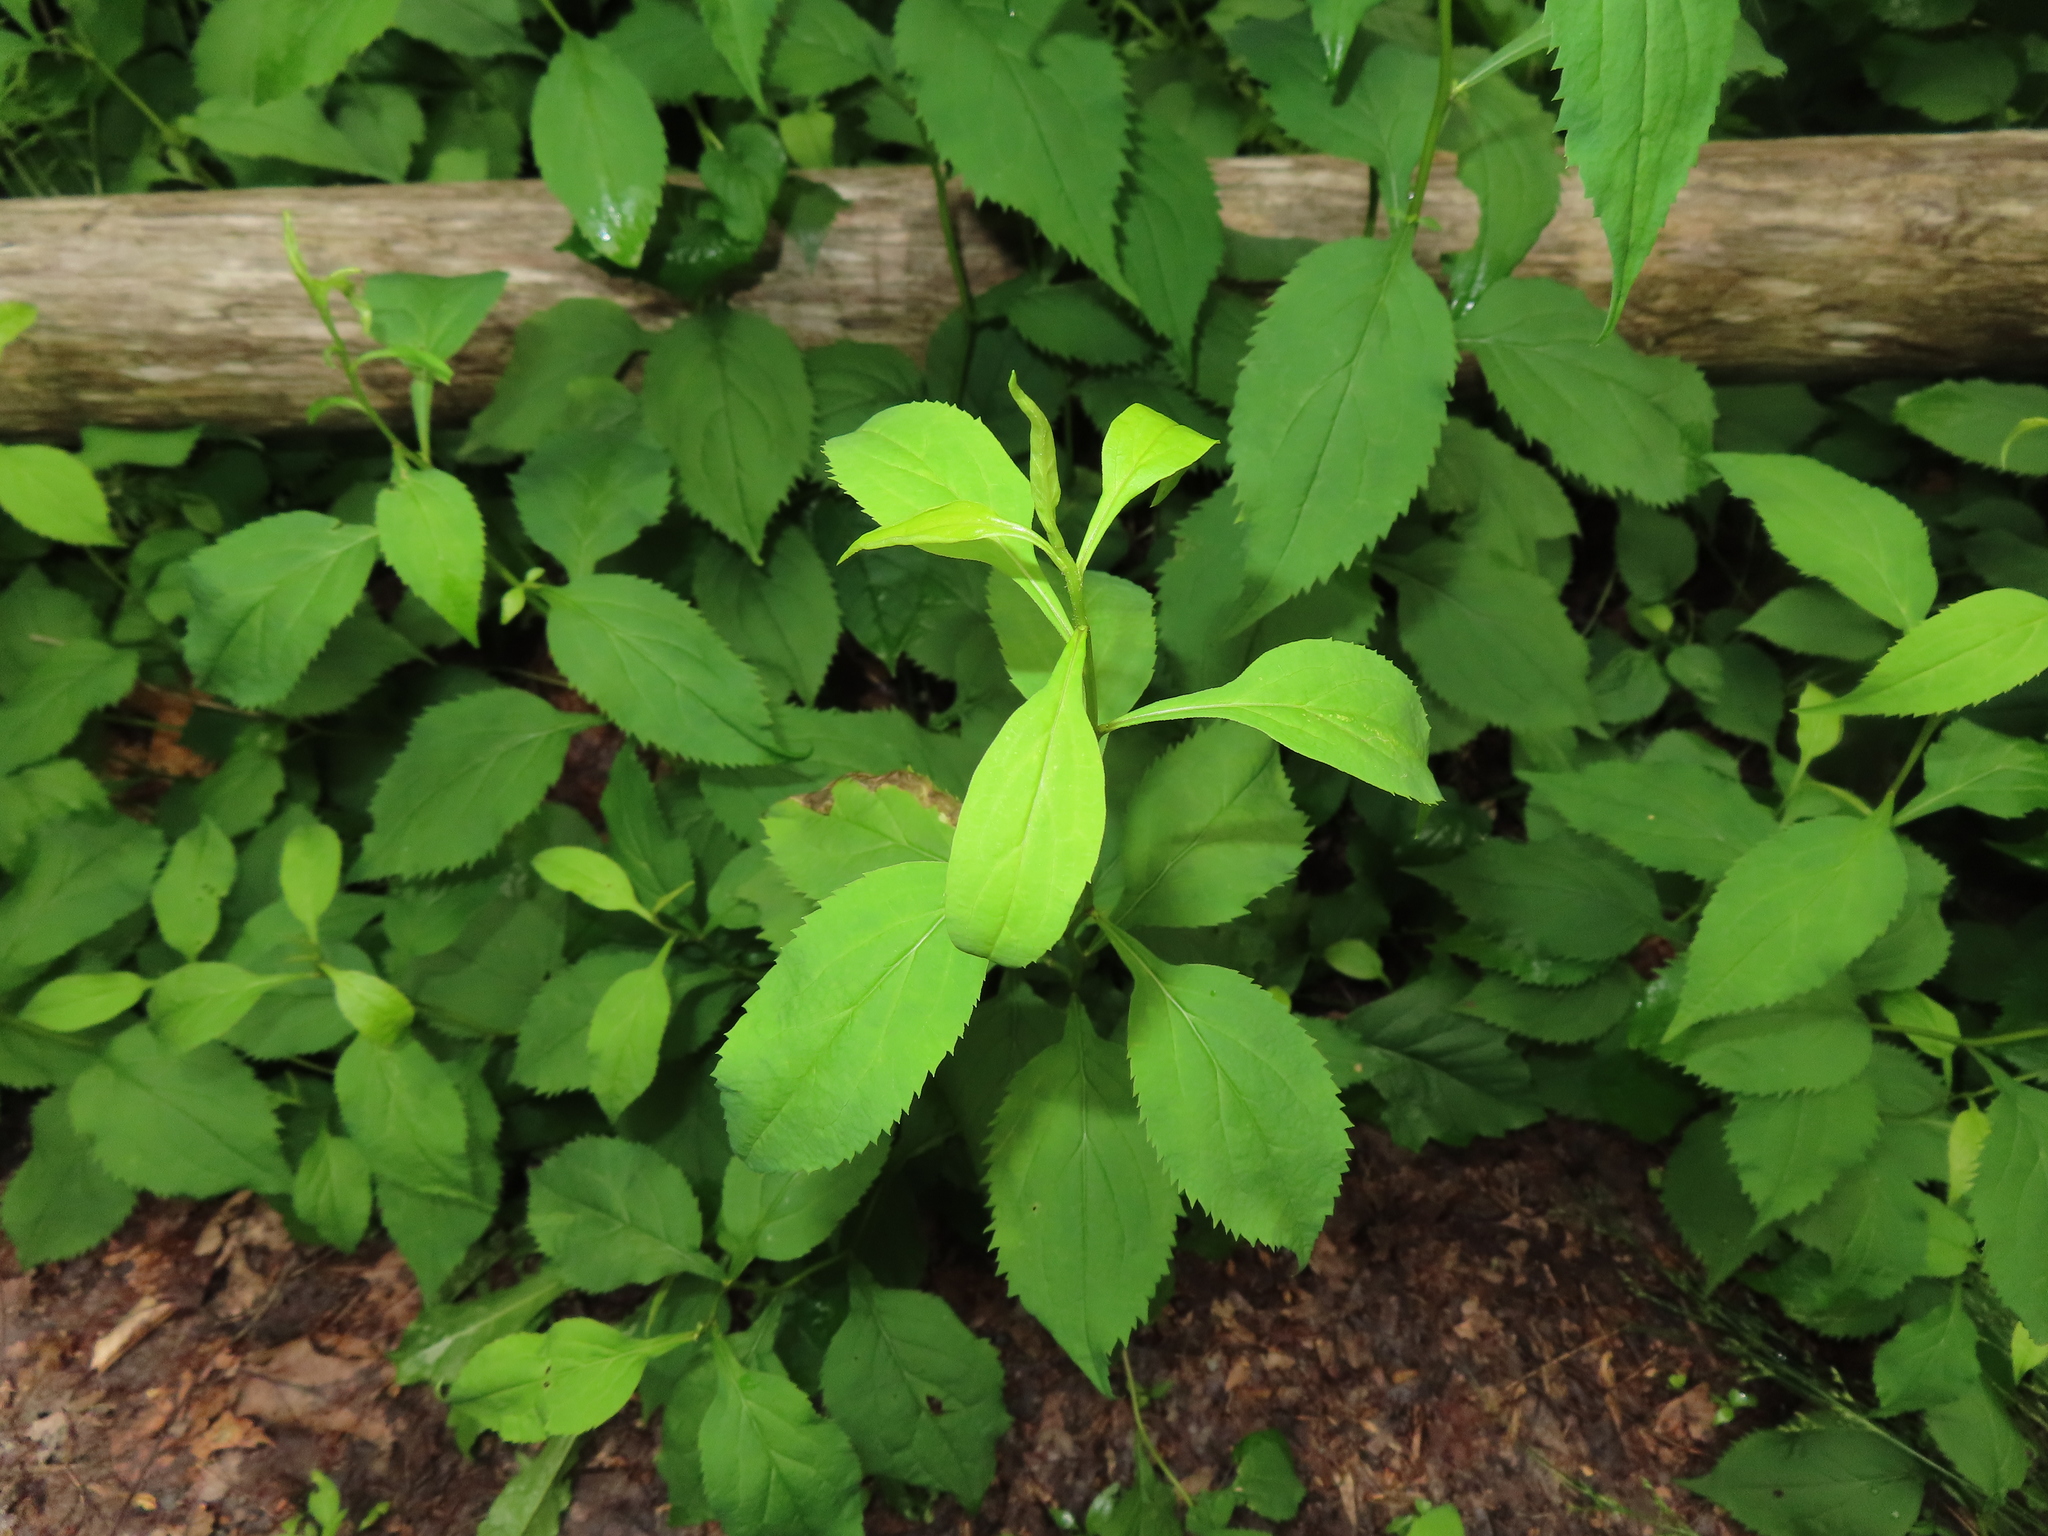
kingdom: Plantae
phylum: Tracheophyta
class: Magnoliopsida
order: Asterales
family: Asteraceae
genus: Solidago
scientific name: Solidago flexicaulis
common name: Zig-zag goldenrod
